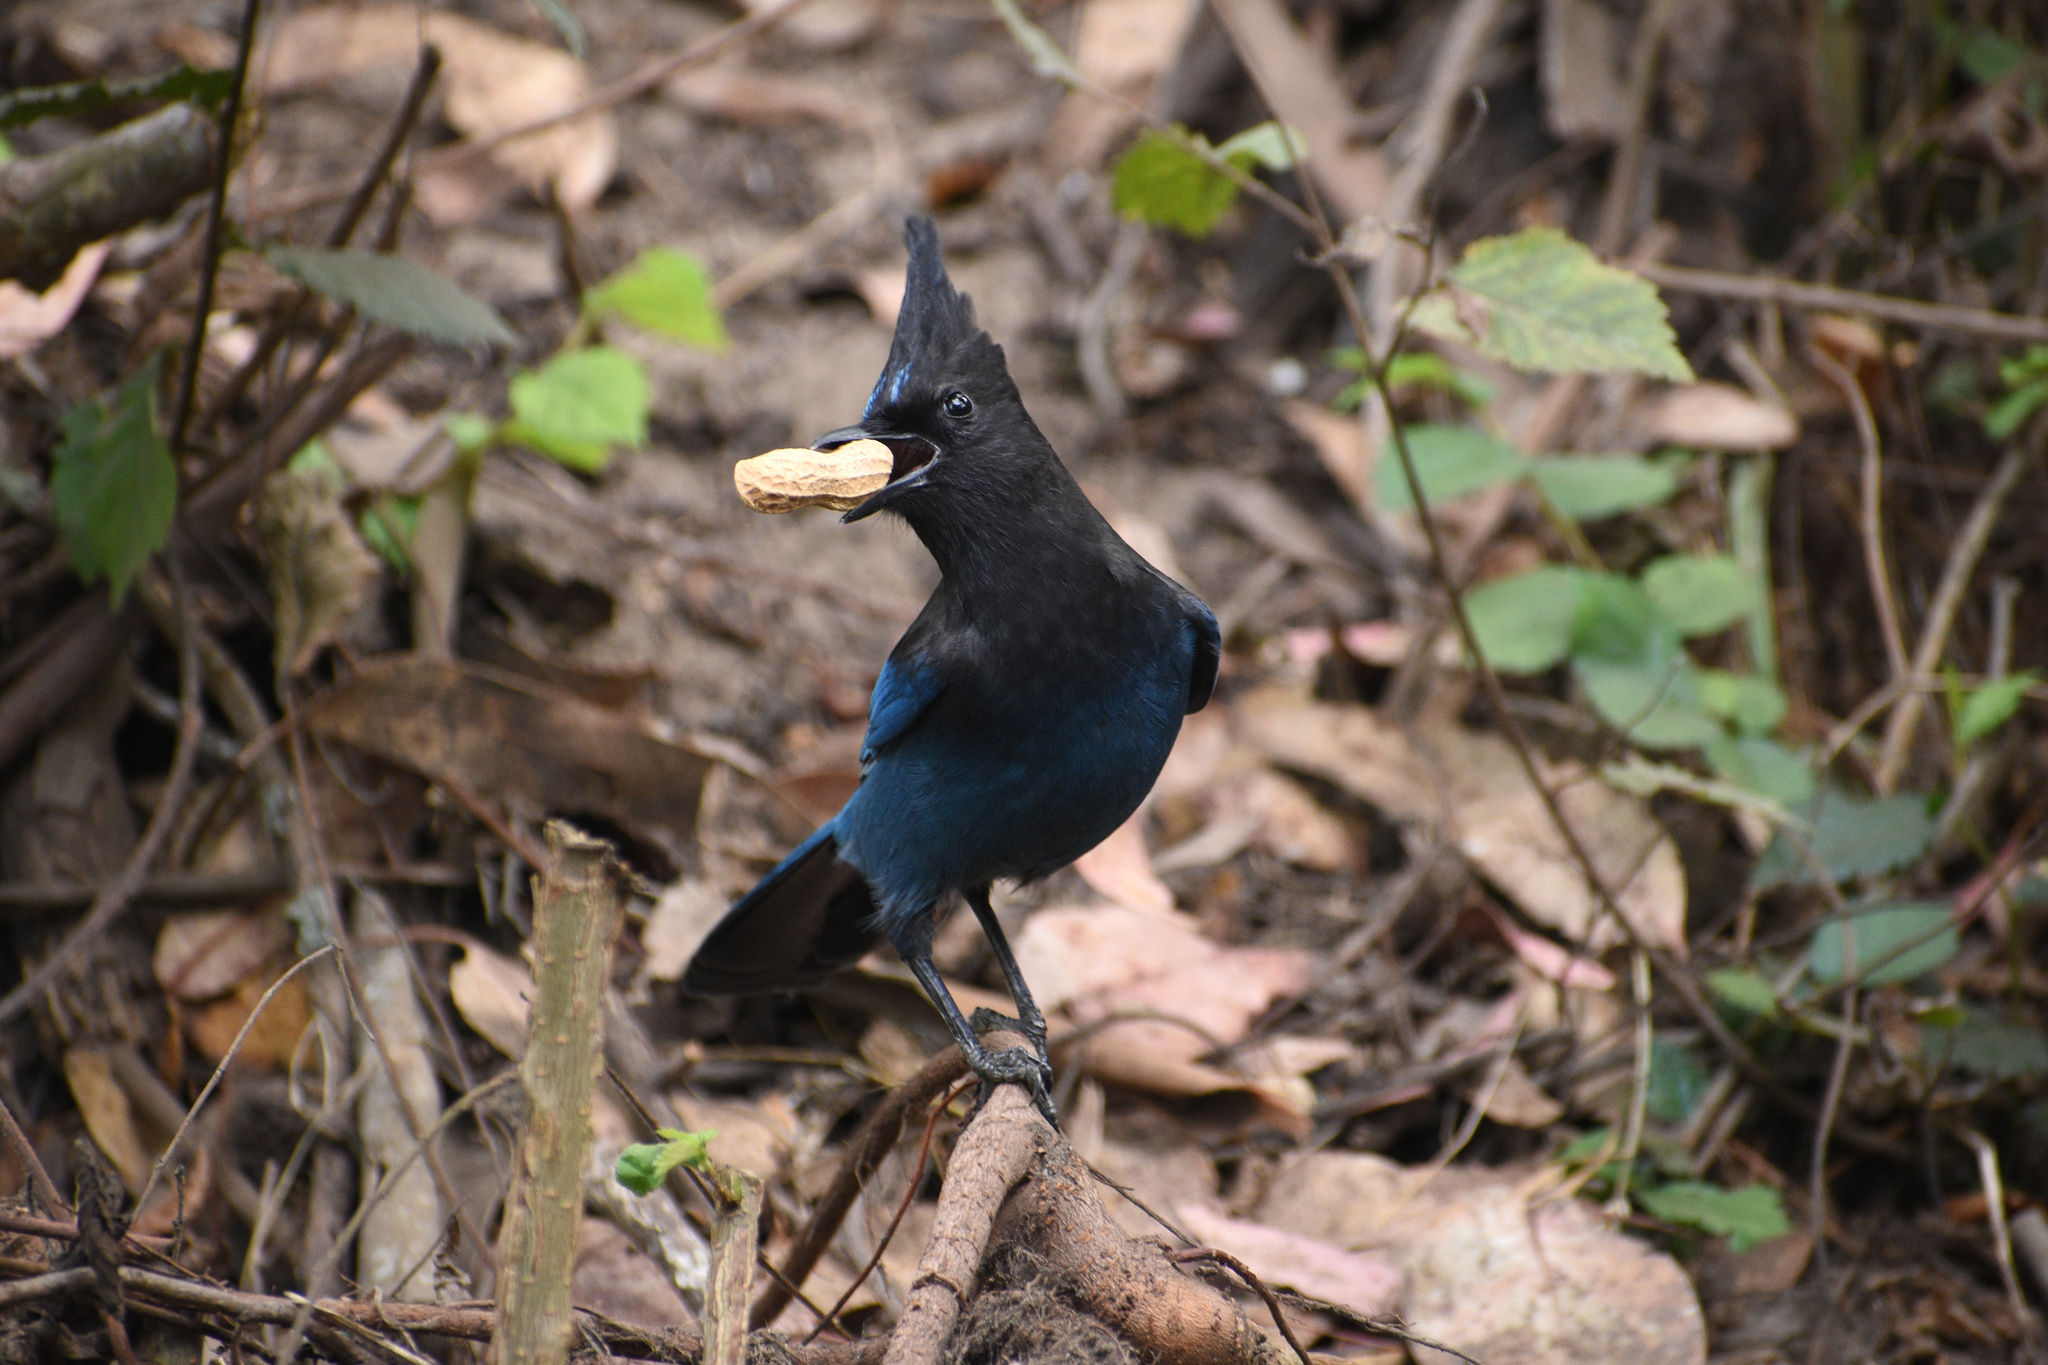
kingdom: Animalia
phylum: Chordata
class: Aves
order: Passeriformes
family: Corvidae
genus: Cyanocitta
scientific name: Cyanocitta stelleri
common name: Steller's jay
